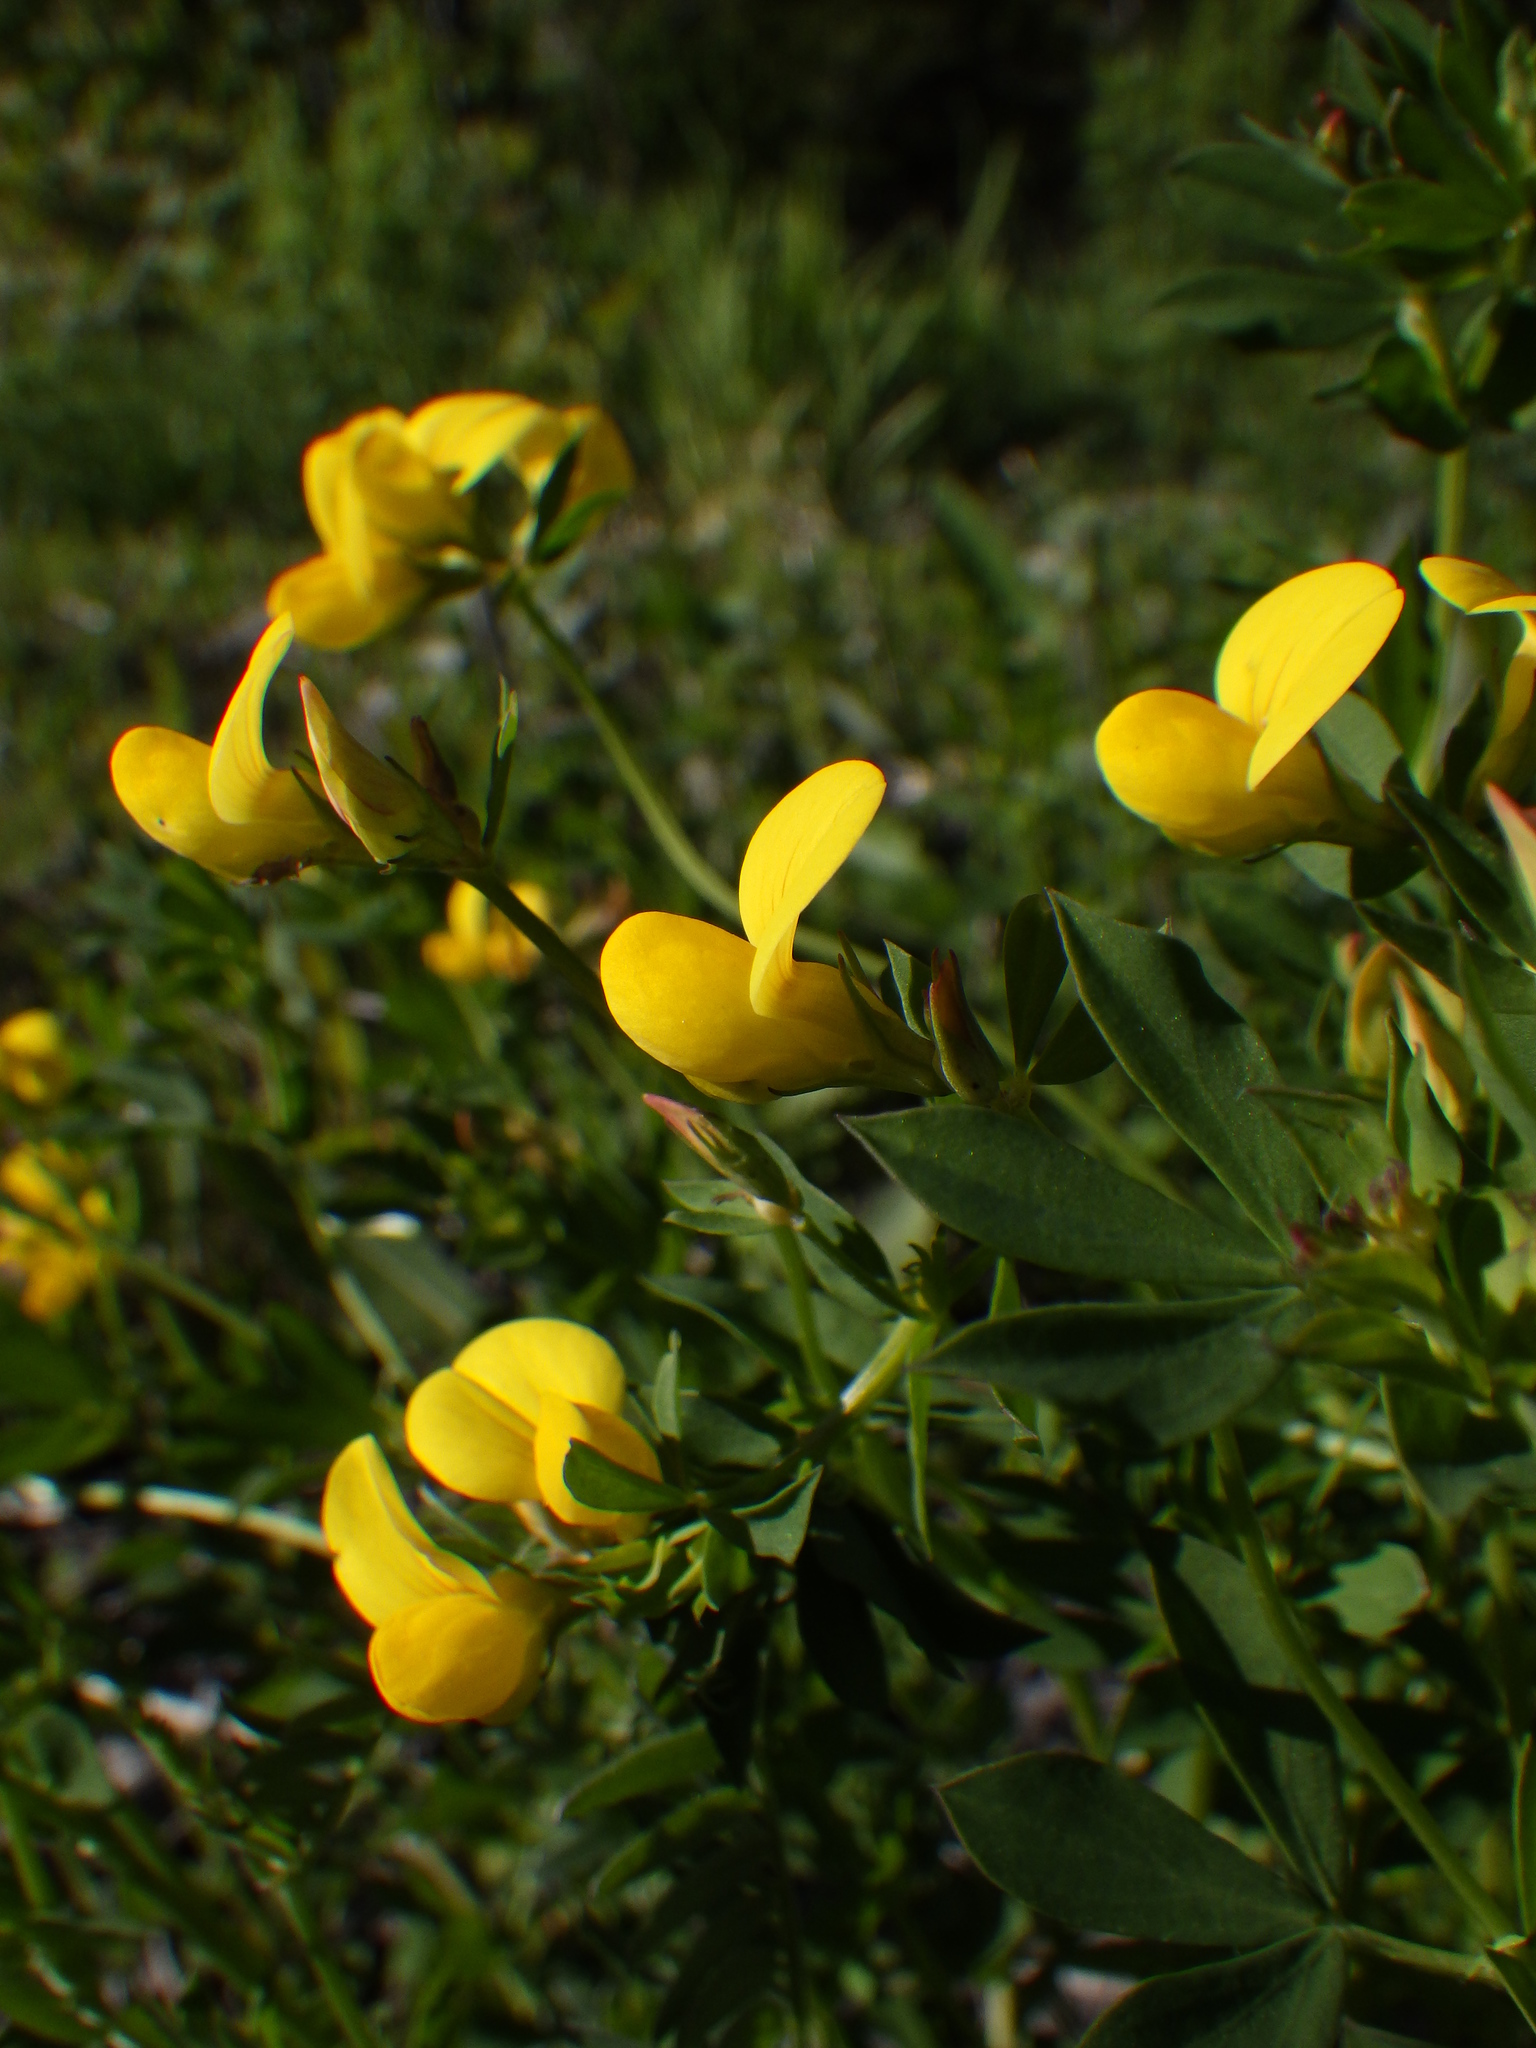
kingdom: Plantae
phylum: Tracheophyta
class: Magnoliopsida
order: Fabales
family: Fabaceae
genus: Lotus
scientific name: Lotus corniculatus
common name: Common bird's-foot-trefoil
